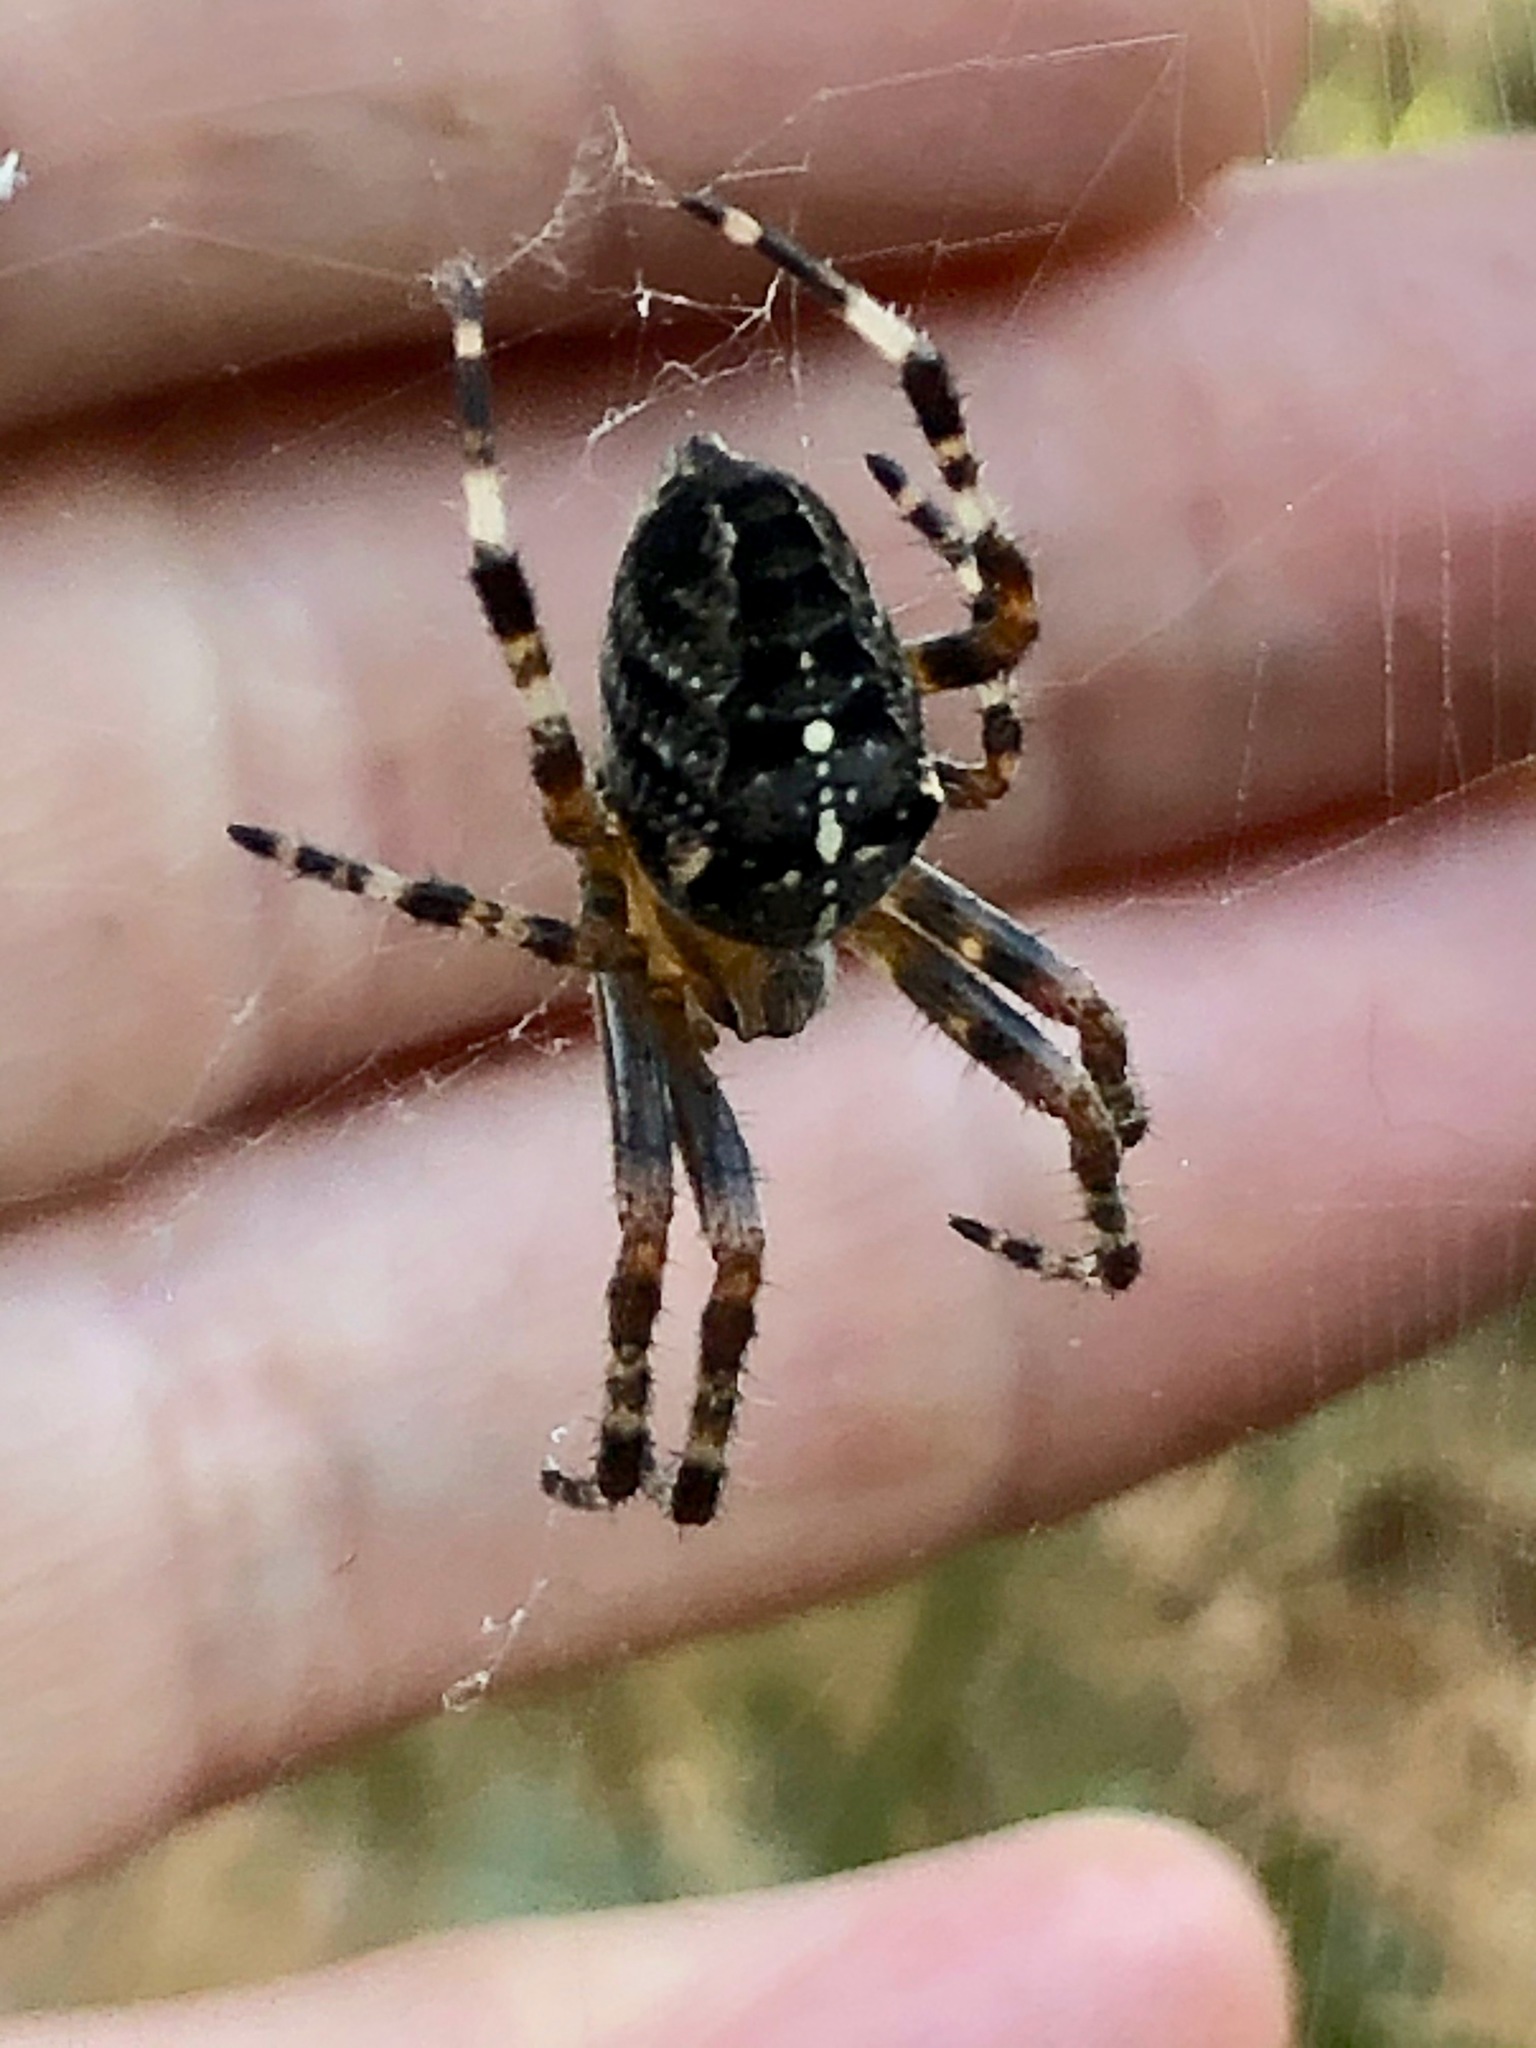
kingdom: Animalia
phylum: Arthropoda
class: Arachnida
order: Araneae
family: Araneidae
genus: Araneus
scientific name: Araneus diadematus
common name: Cross orbweaver
